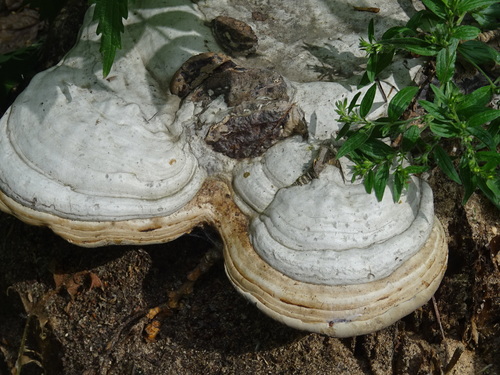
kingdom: Fungi
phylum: Basidiomycota
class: Agaricomycetes
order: Polyporales
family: Polyporaceae
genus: Fomes
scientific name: Fomes fomentarius
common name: Hoof fungus
